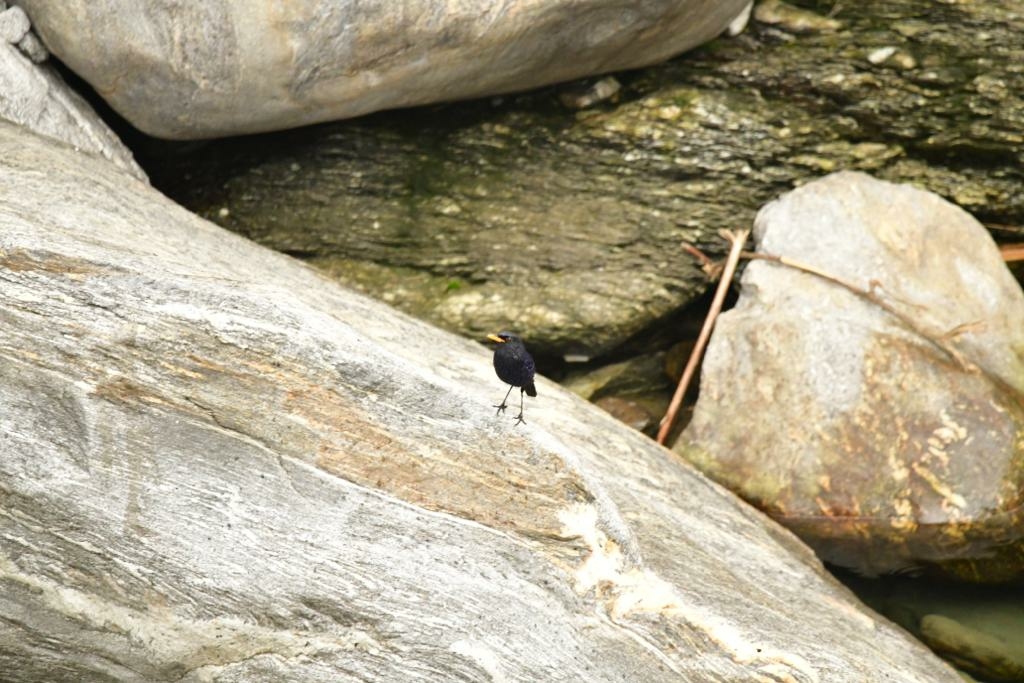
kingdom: Animalia
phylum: Chordata
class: Aves
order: Passeriformes
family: Muscicapidae
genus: Myophonus
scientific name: Myophonus caeruleus
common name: Blue whistling-thrush
